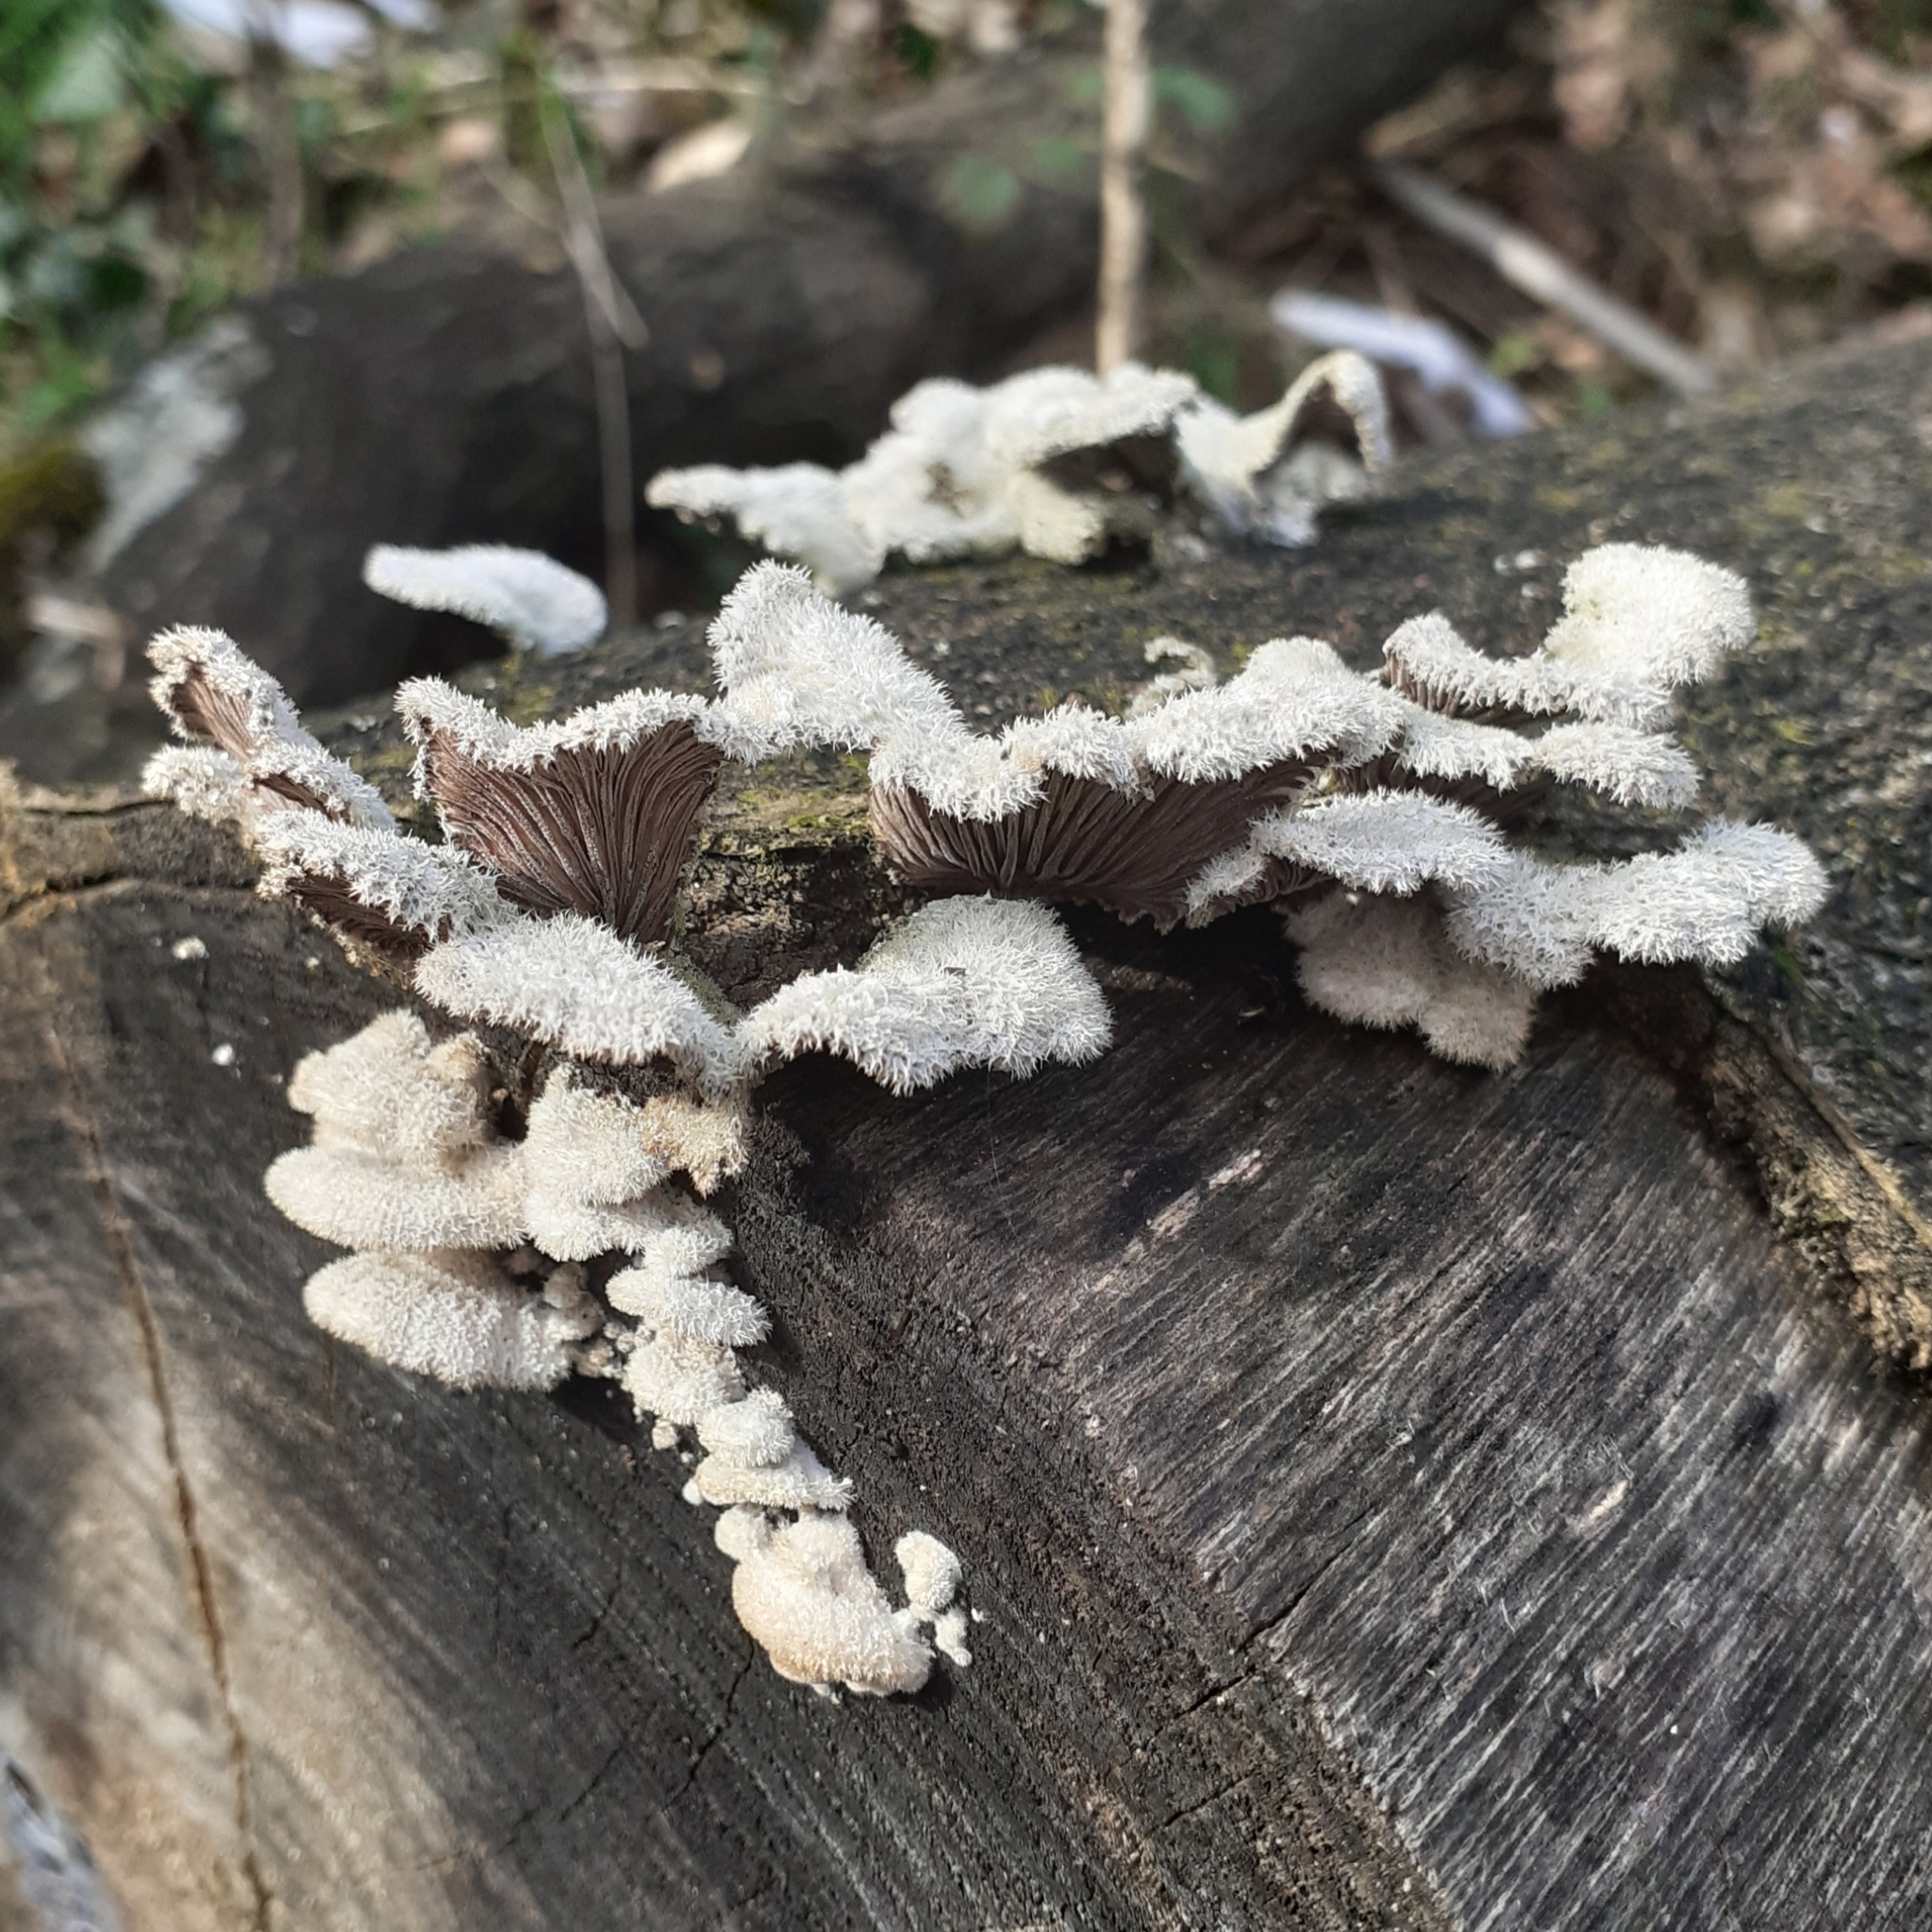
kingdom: Fungi
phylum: Basidiomycota
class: Agaricomycetes
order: Agaricales
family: Schizophyllaceae
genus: Schizophyllum
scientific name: Schizophyllum commune
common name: Common porecrust
